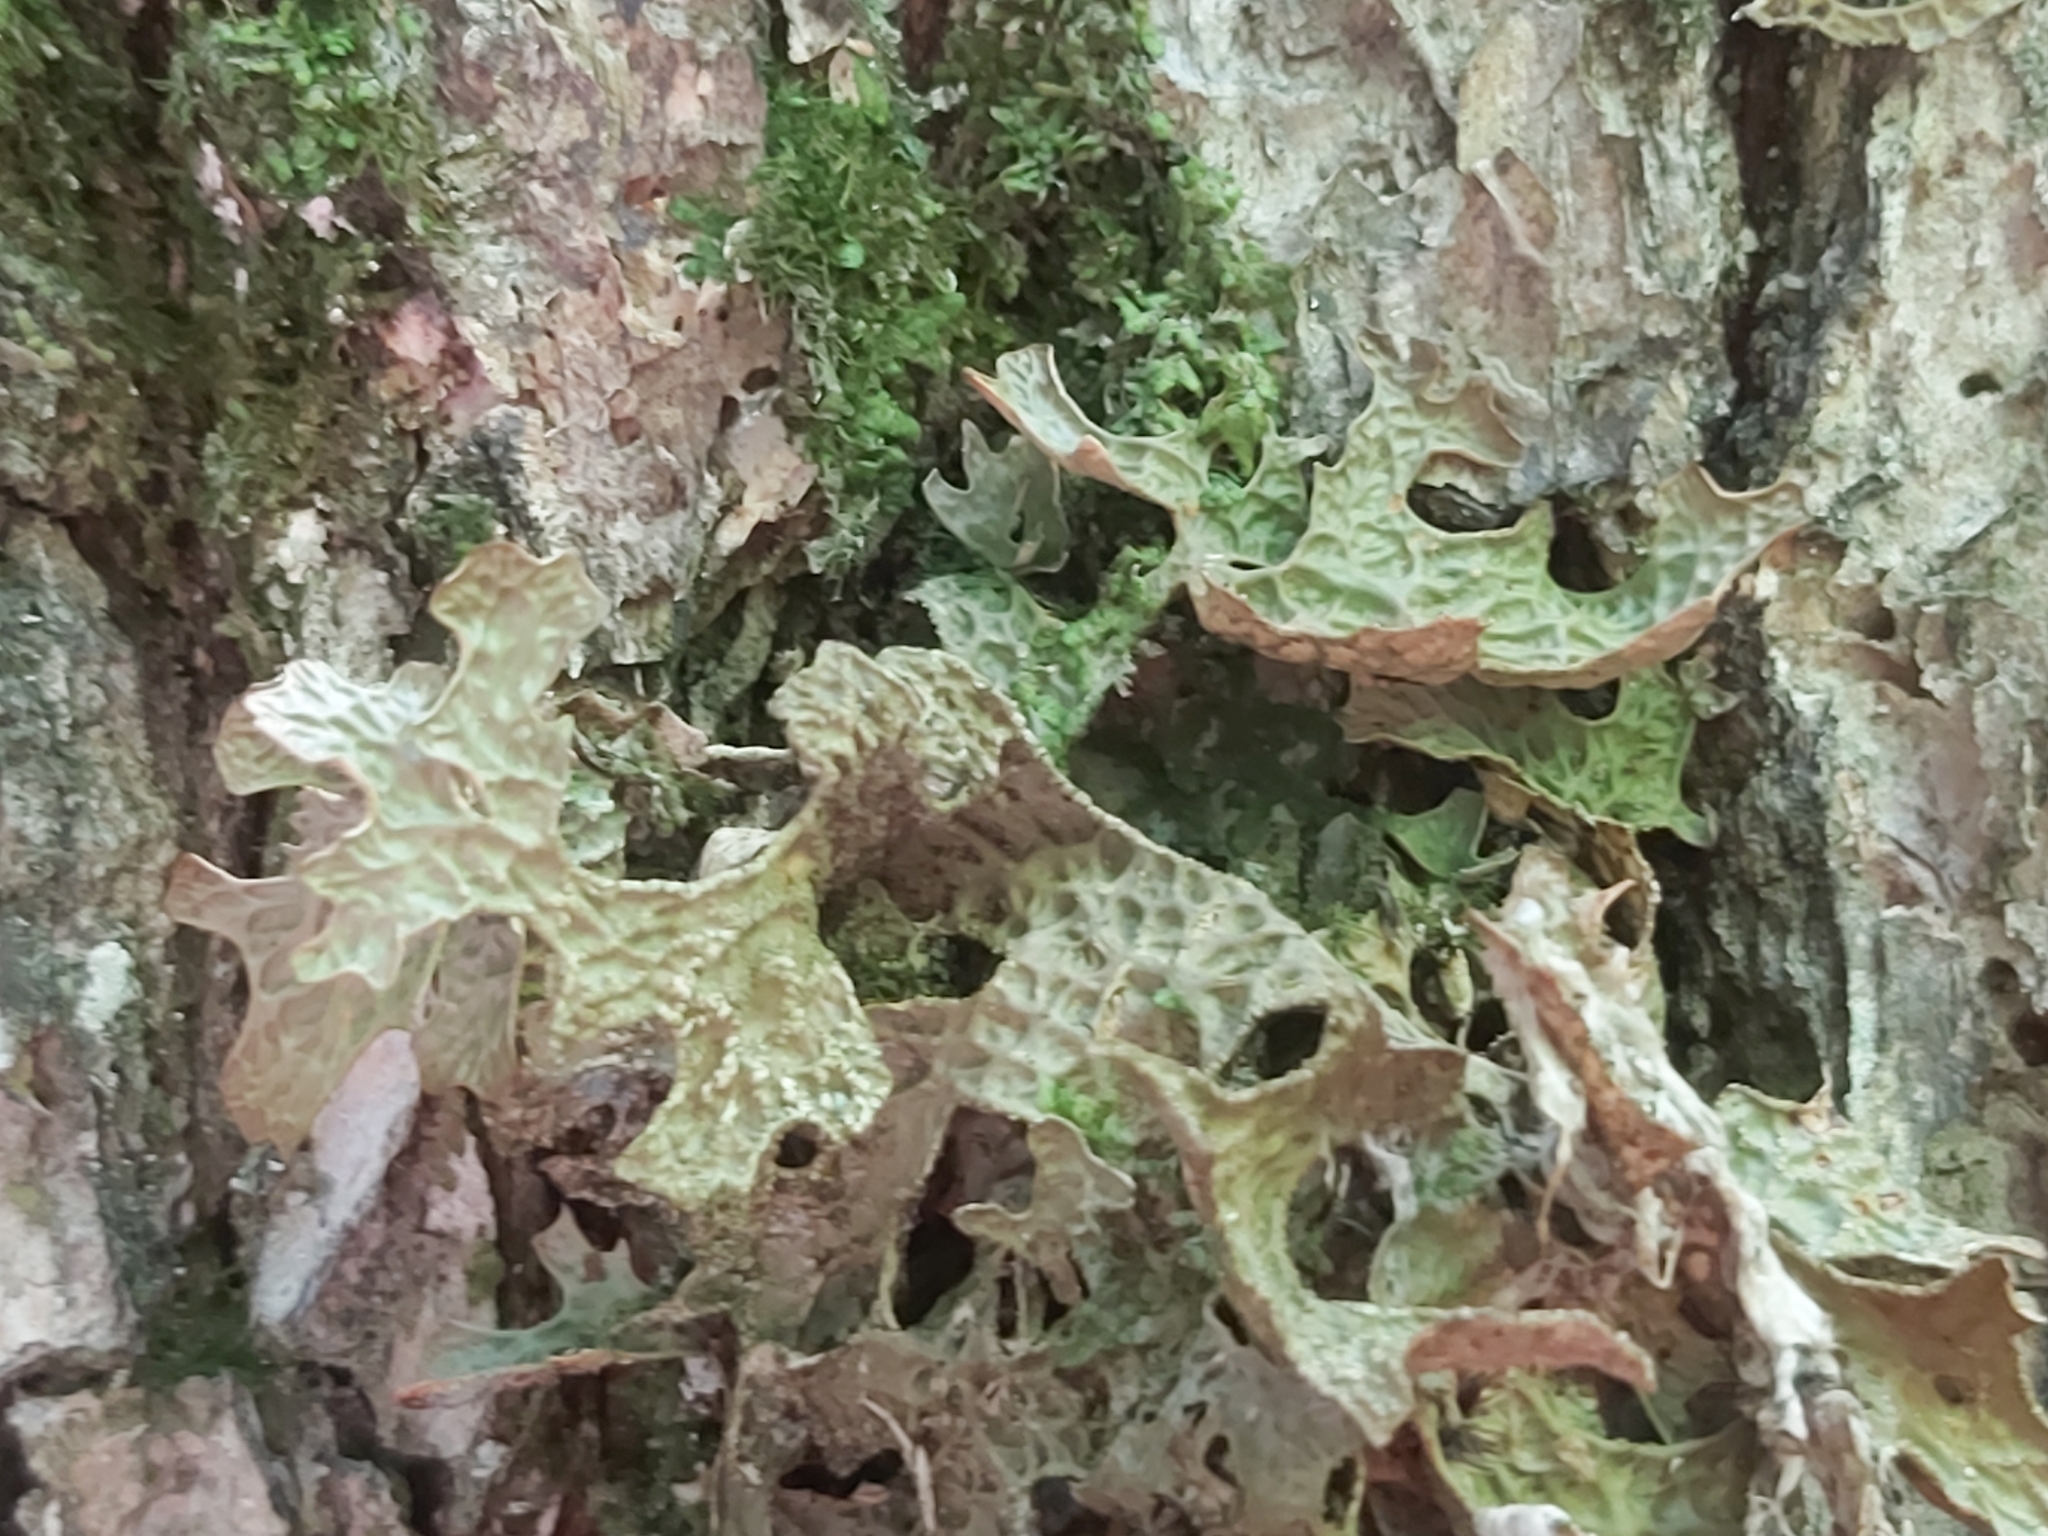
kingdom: Fungi
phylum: Ascomycota
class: Lecanoromycetes
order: Peltigerales
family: Lobariaceae
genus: Lobaria
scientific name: Lobaria pulmonaria
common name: Lungwort
